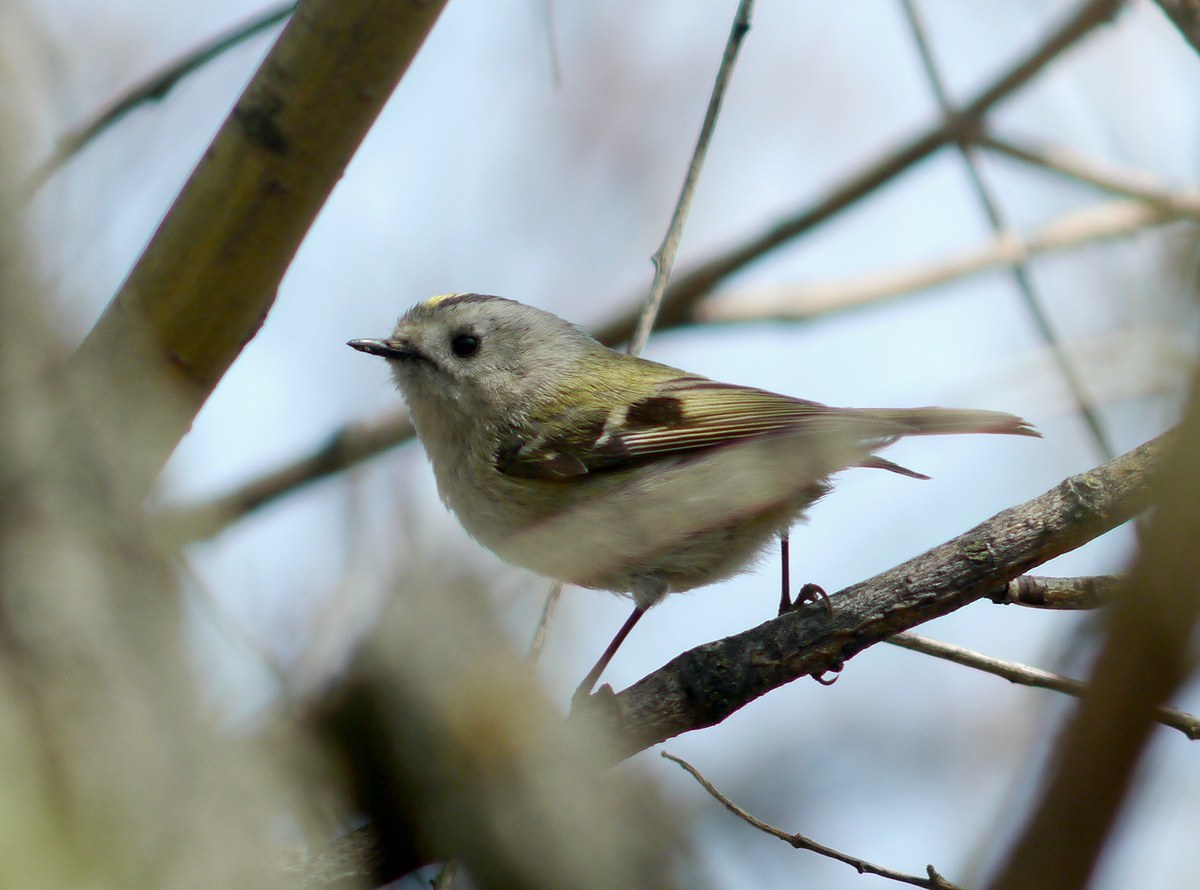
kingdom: Animalia
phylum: Chordata
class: Aves
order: Passeriformes
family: Regulidae
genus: Regulus
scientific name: Regulus regulus
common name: Goldcrest
